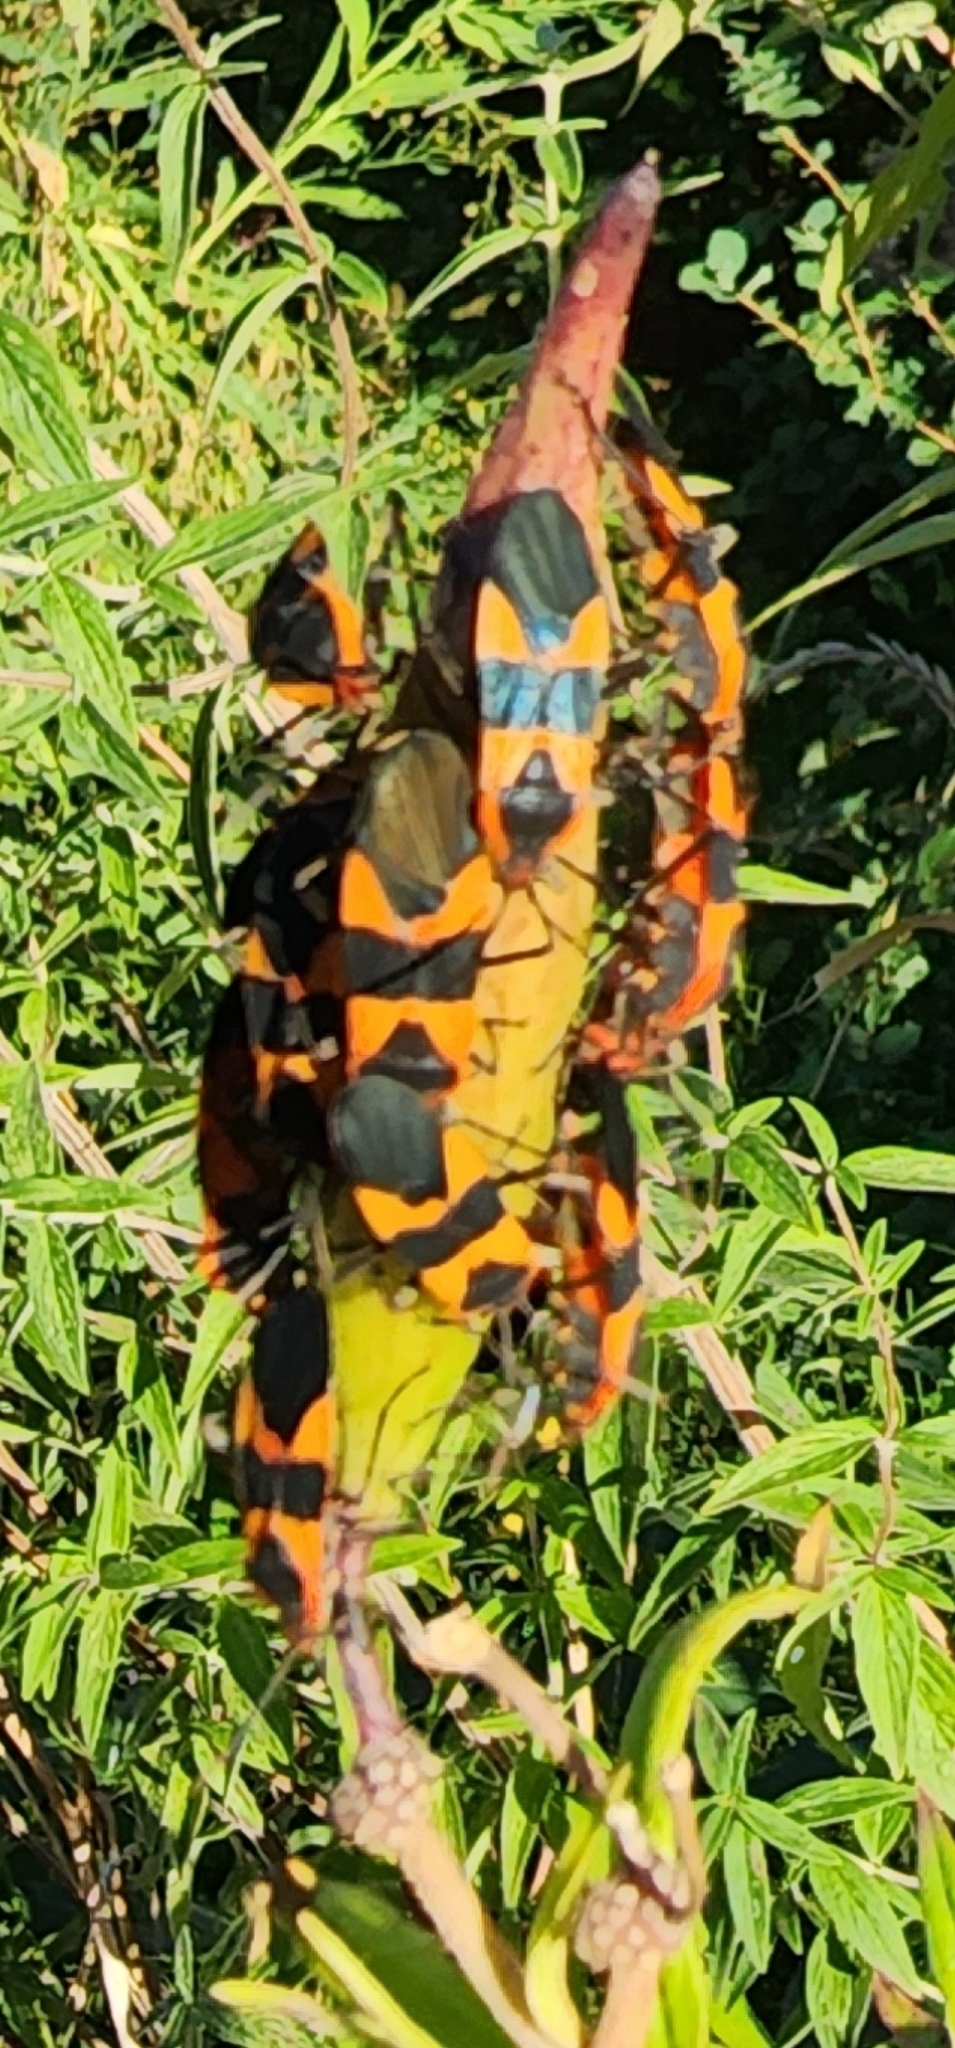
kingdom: Animalia
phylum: Arthropoda
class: Insecta
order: Hemiptera
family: Lygaeidae
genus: Oncopeltus
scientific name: Oncopeltus fasciatus
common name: Large milkweed bug
